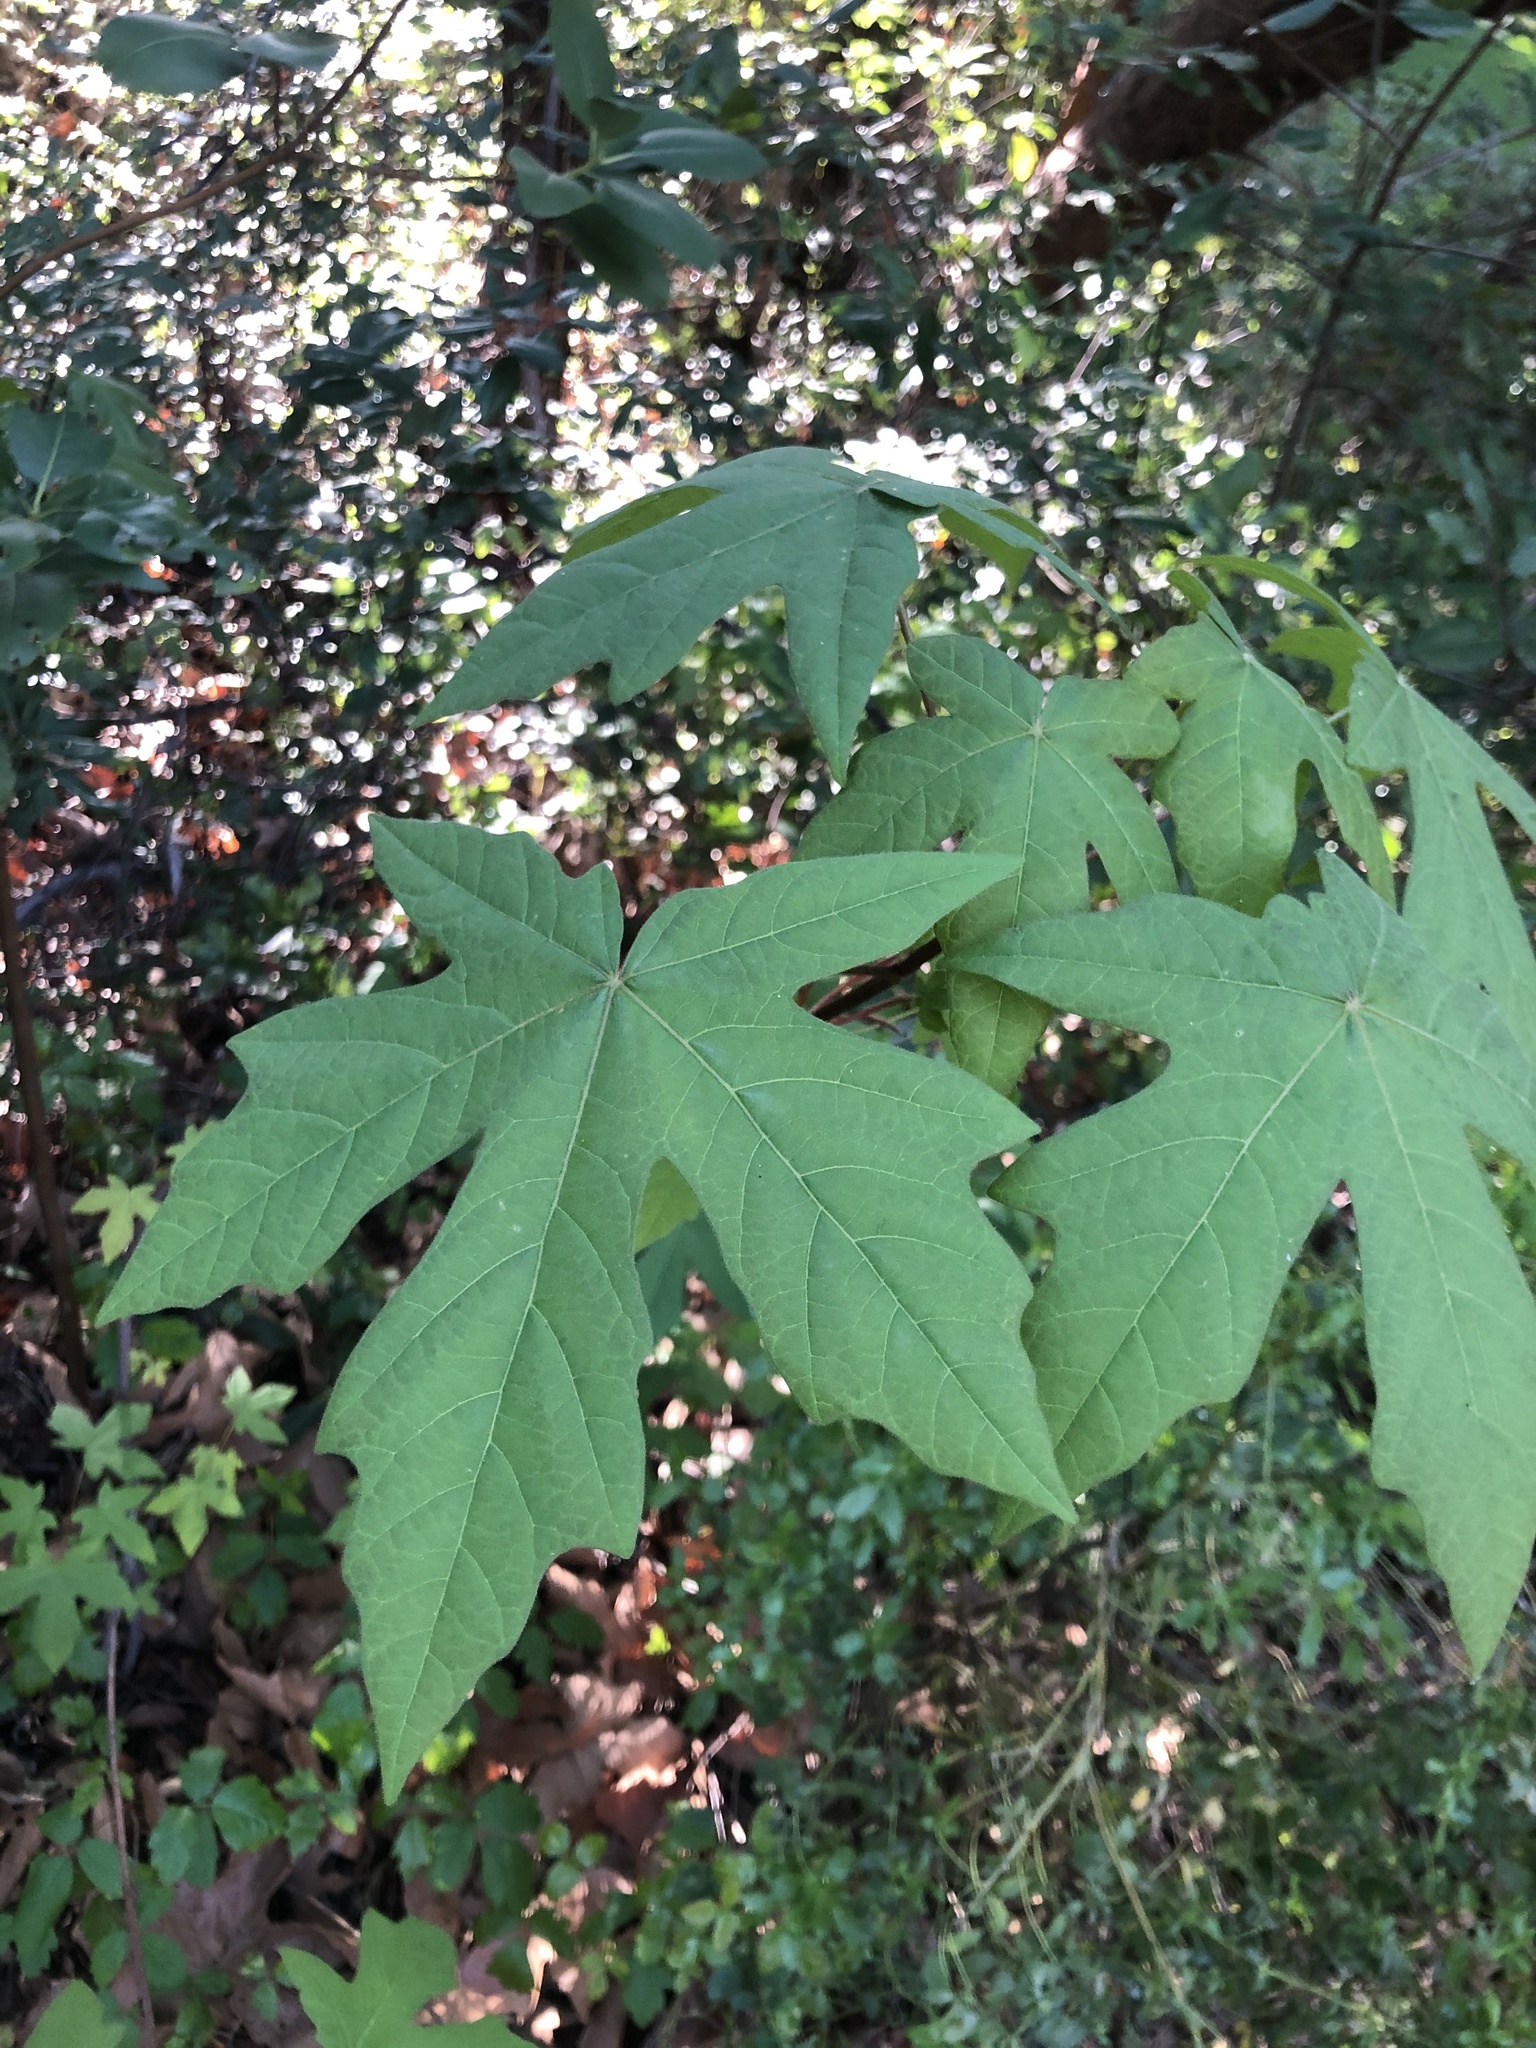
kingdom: Plantae
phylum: Tracheophyta
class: Magnoliopsida
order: Sapindales
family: Sapindaceae
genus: Acer
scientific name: Acer macrophyllum
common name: Oregon maple
